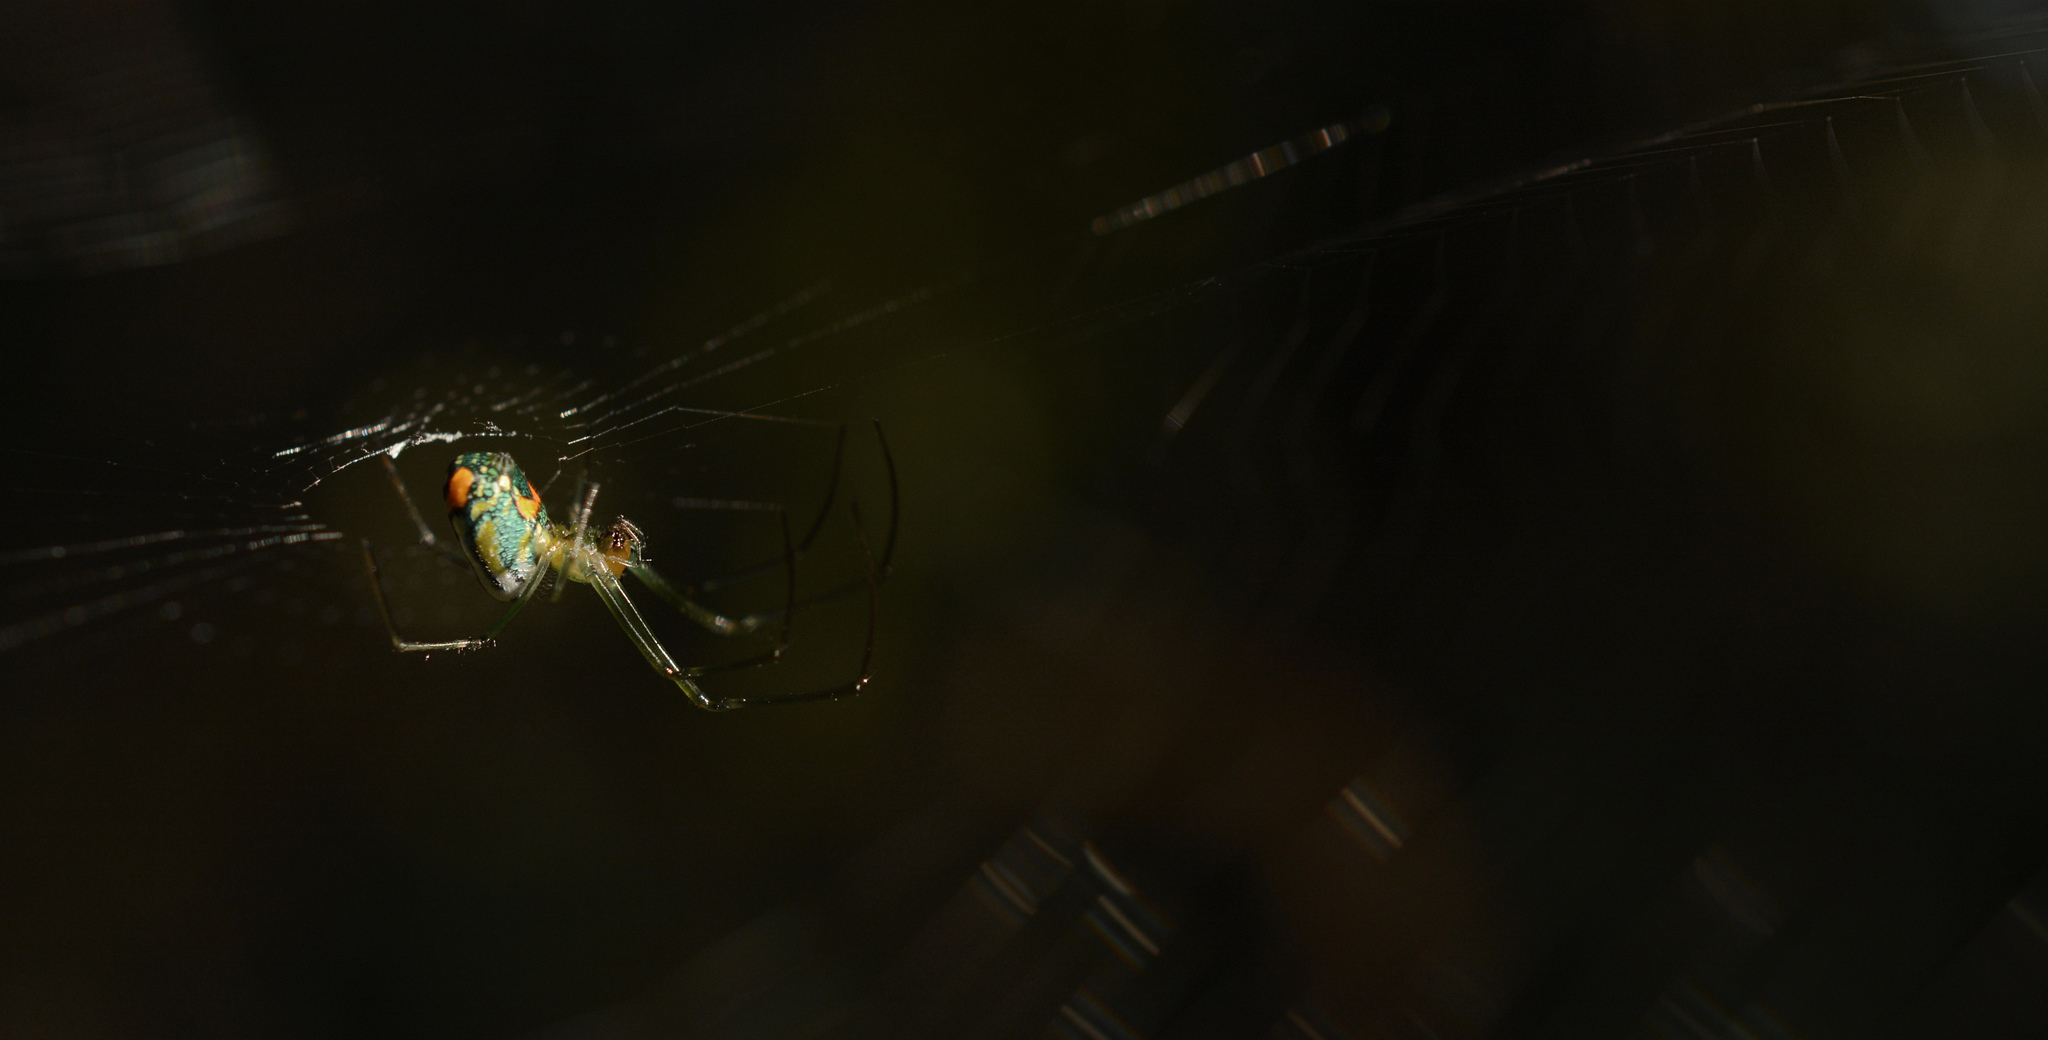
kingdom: Animalia
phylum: Arthropoda
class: Arachnida
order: Araneae
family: Tetragnathidae
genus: Leucauge
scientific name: Leucauge argyrobapta
